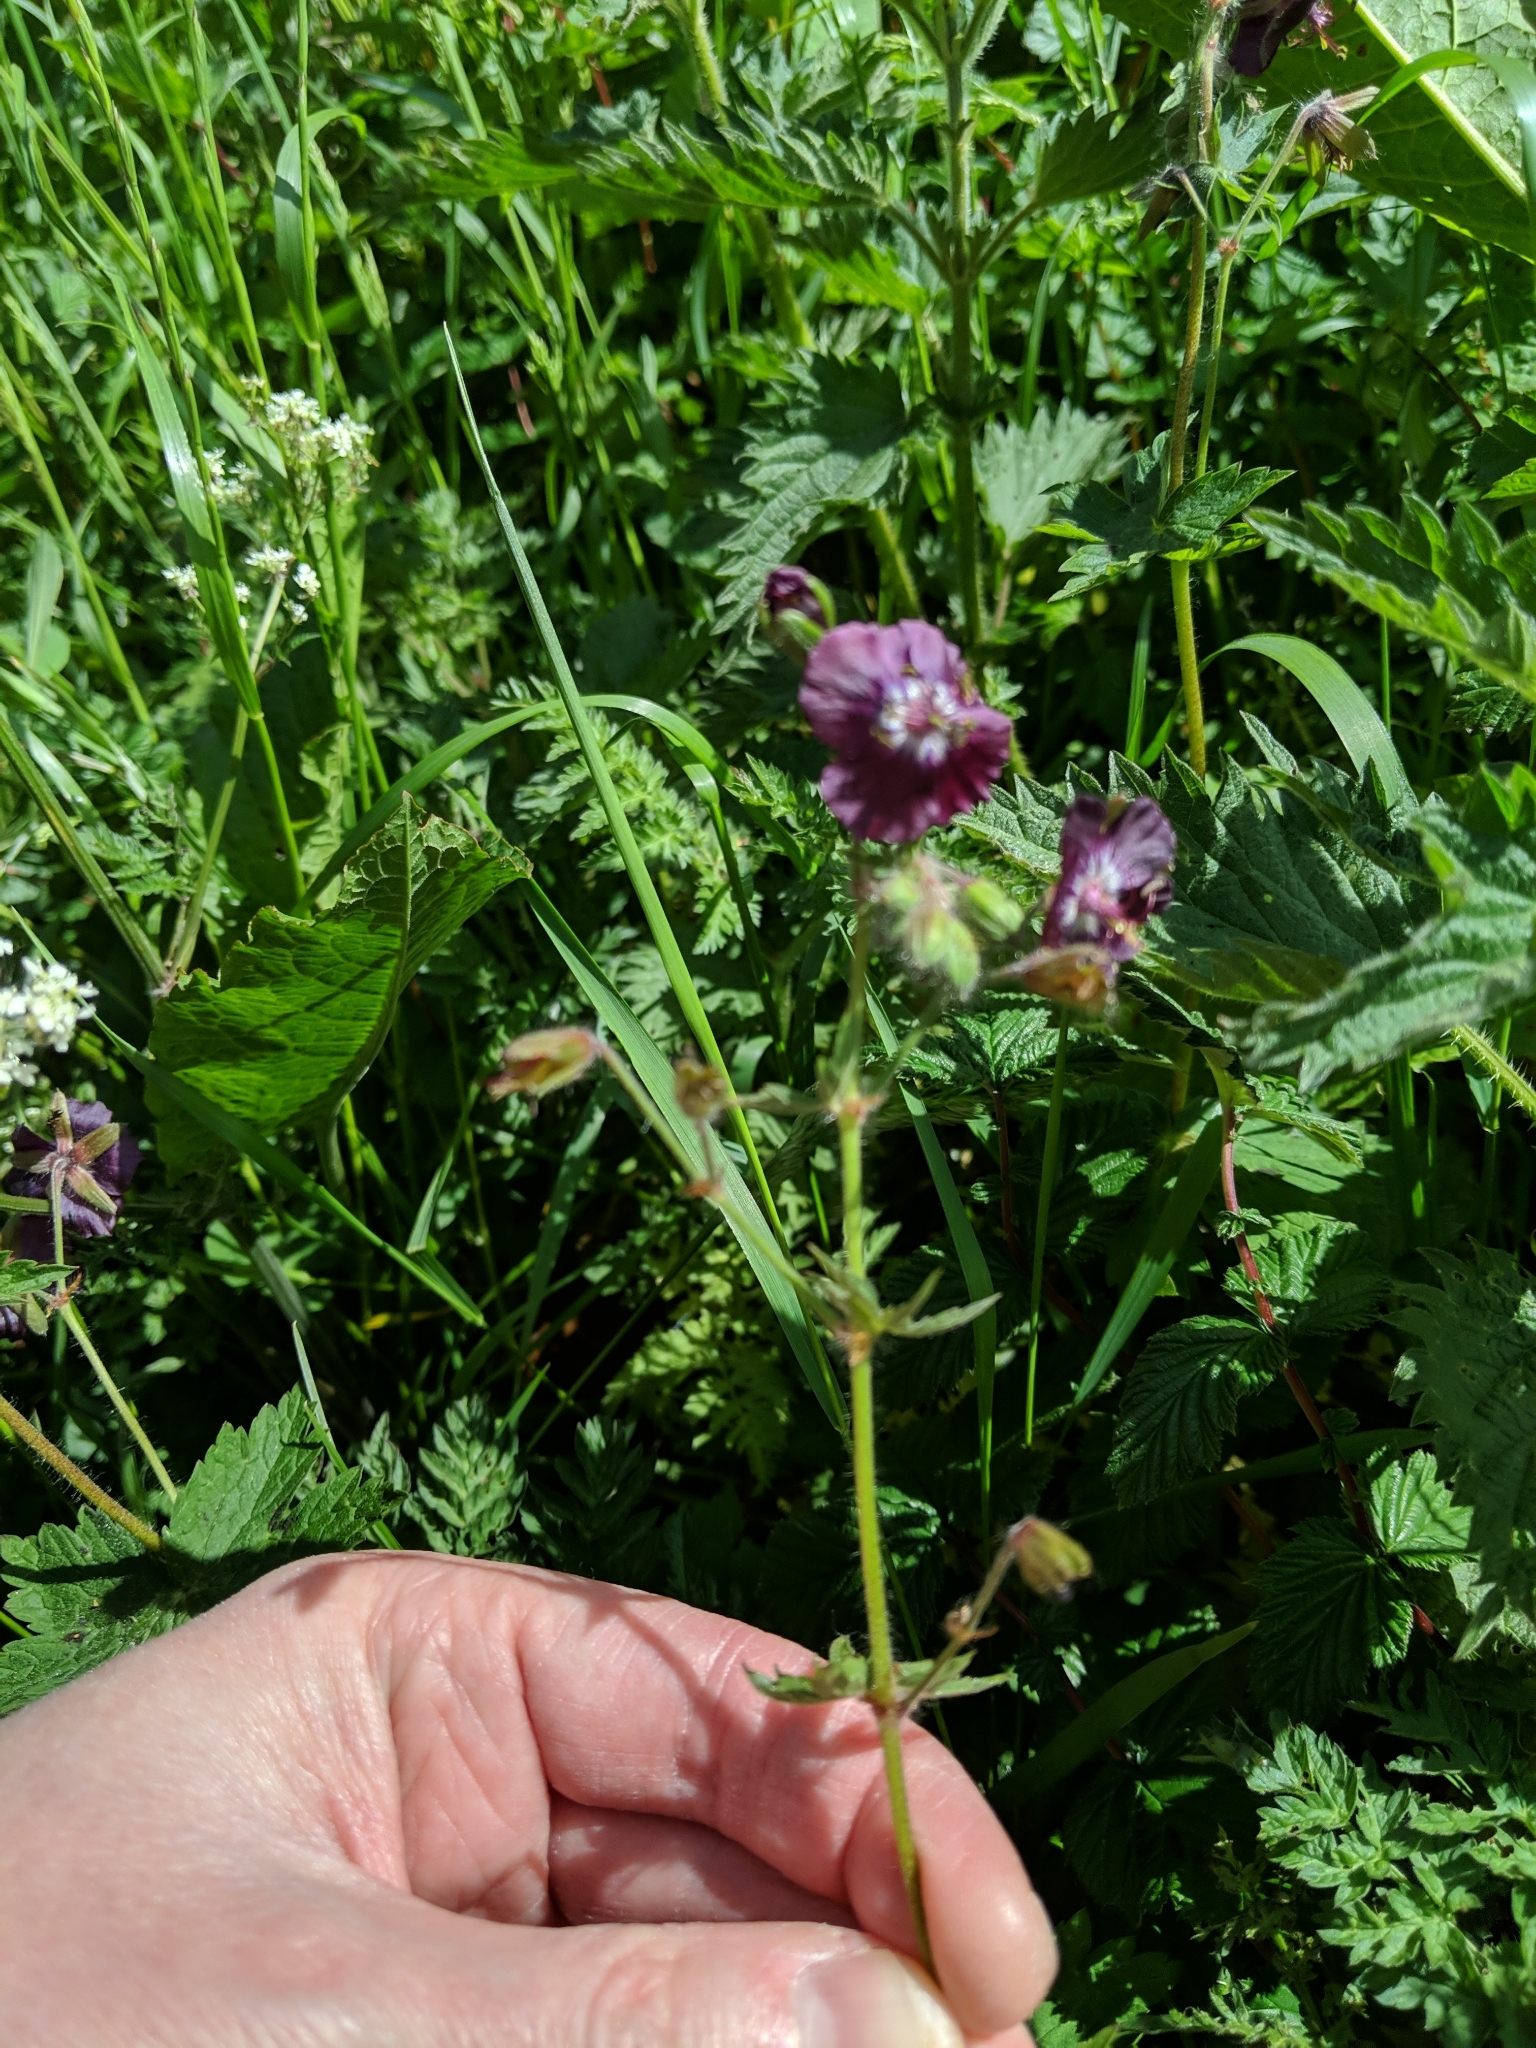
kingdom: Plantae
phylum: Tracheophyta
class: Magnoliopsida
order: Geraniales
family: Geraniaceae
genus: Geranium
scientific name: Geranium phaeum
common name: Dusky crane's-bill
